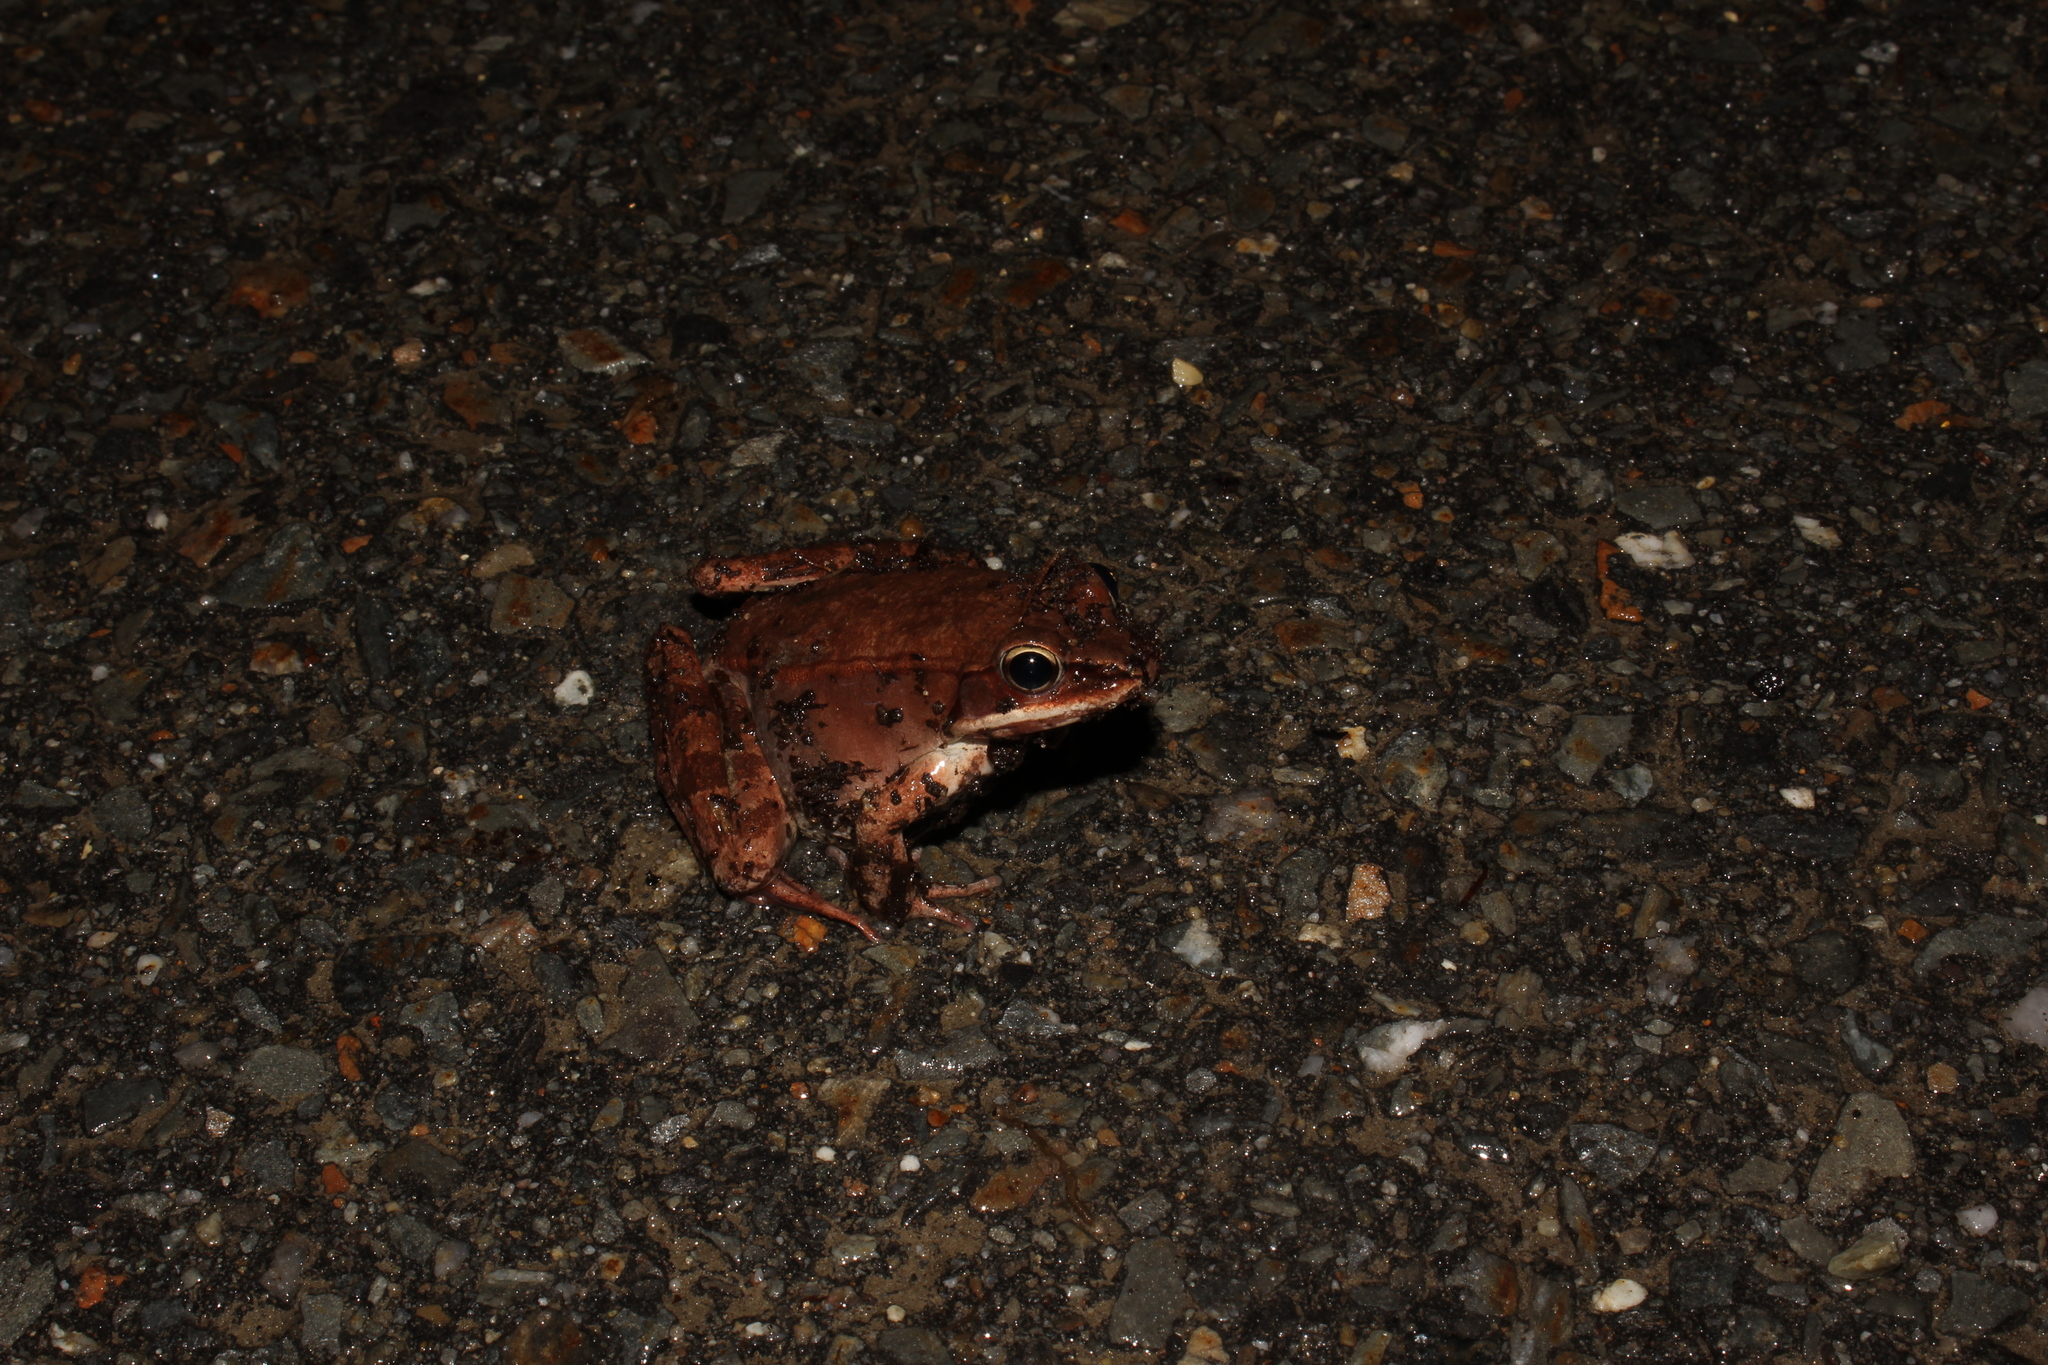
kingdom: Animalia
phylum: Chordata
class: Amphibia
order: Anura
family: Ranidae
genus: Lithobates
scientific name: Lithobates sylvaticus
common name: Wood frog
